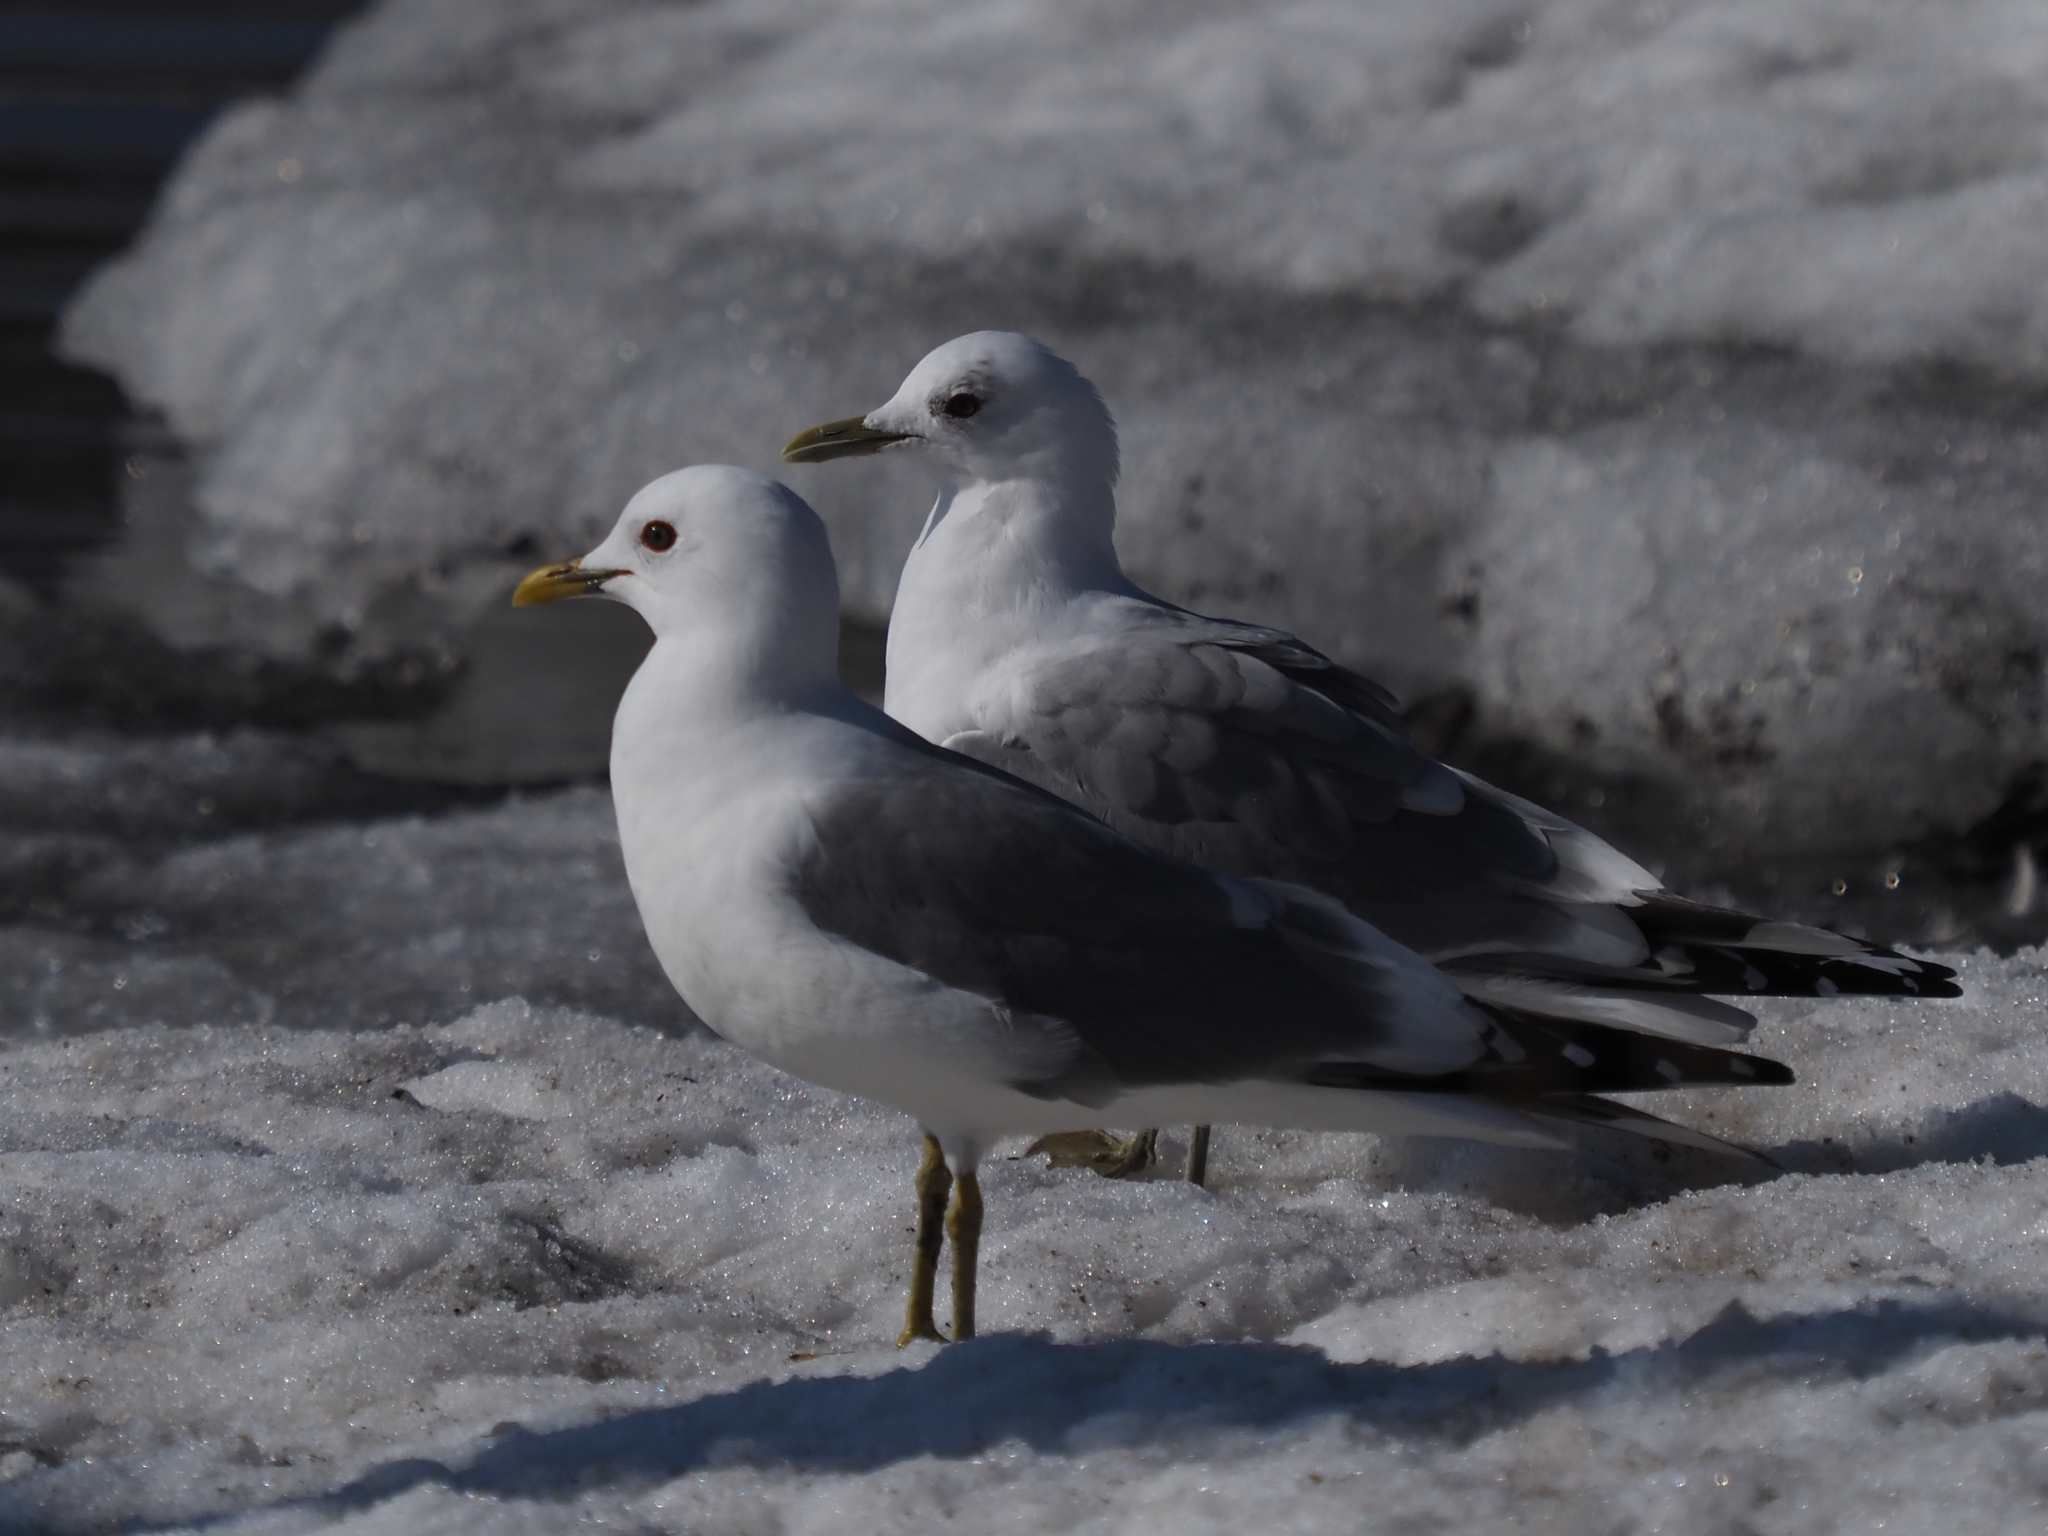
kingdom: Animalia
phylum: Chordata
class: Aves
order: Charadriiformes
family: Laridae
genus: Larus
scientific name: Larus brachyrhynchus
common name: Short-billed gull
